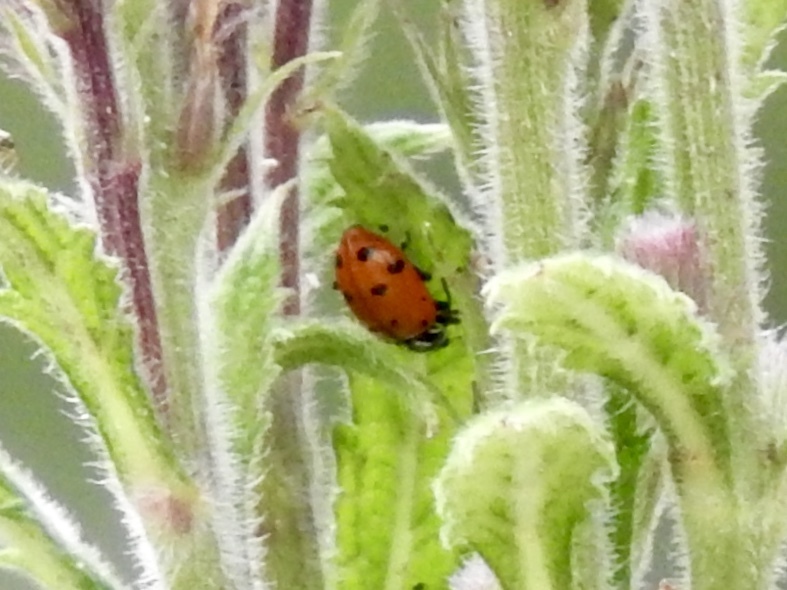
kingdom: Animalia
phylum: Arthropoda
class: Insecta
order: Coleoptera
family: Coccinellidae
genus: Hippodamia
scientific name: Hippodamia convergens
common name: Convergent lady beetle
